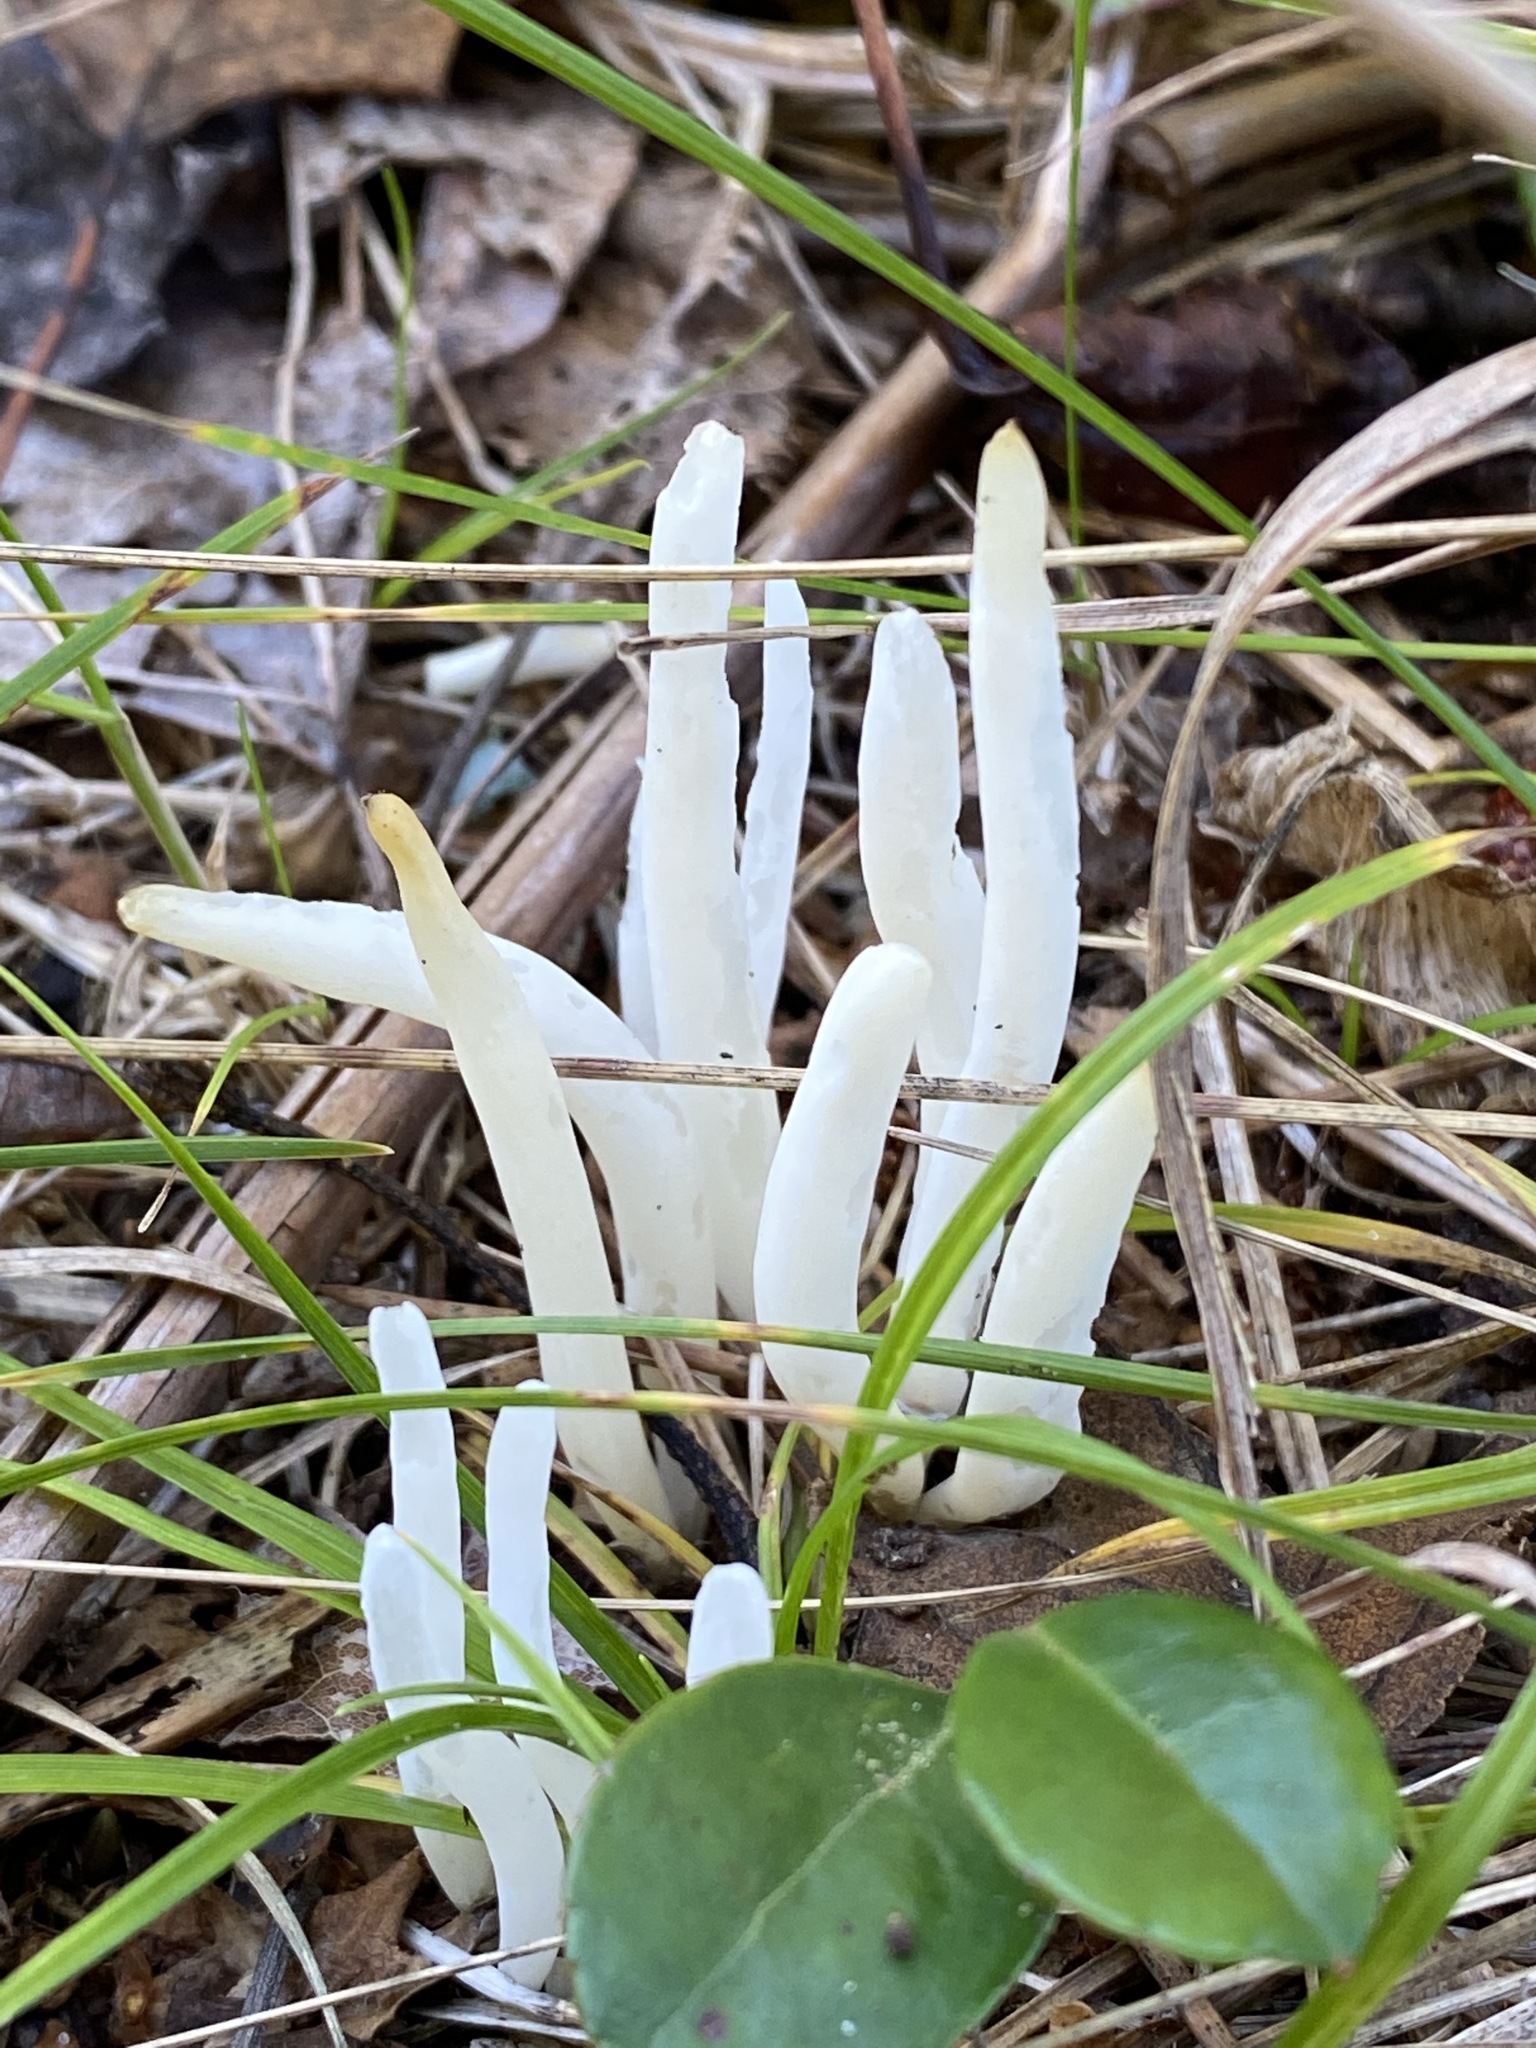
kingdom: Fungi
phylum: Basidiomycota
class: Agaricomycetes
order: Agaricales
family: Clavariaceae
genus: Clavaria
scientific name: Clavaria fragilis
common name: White spindles
